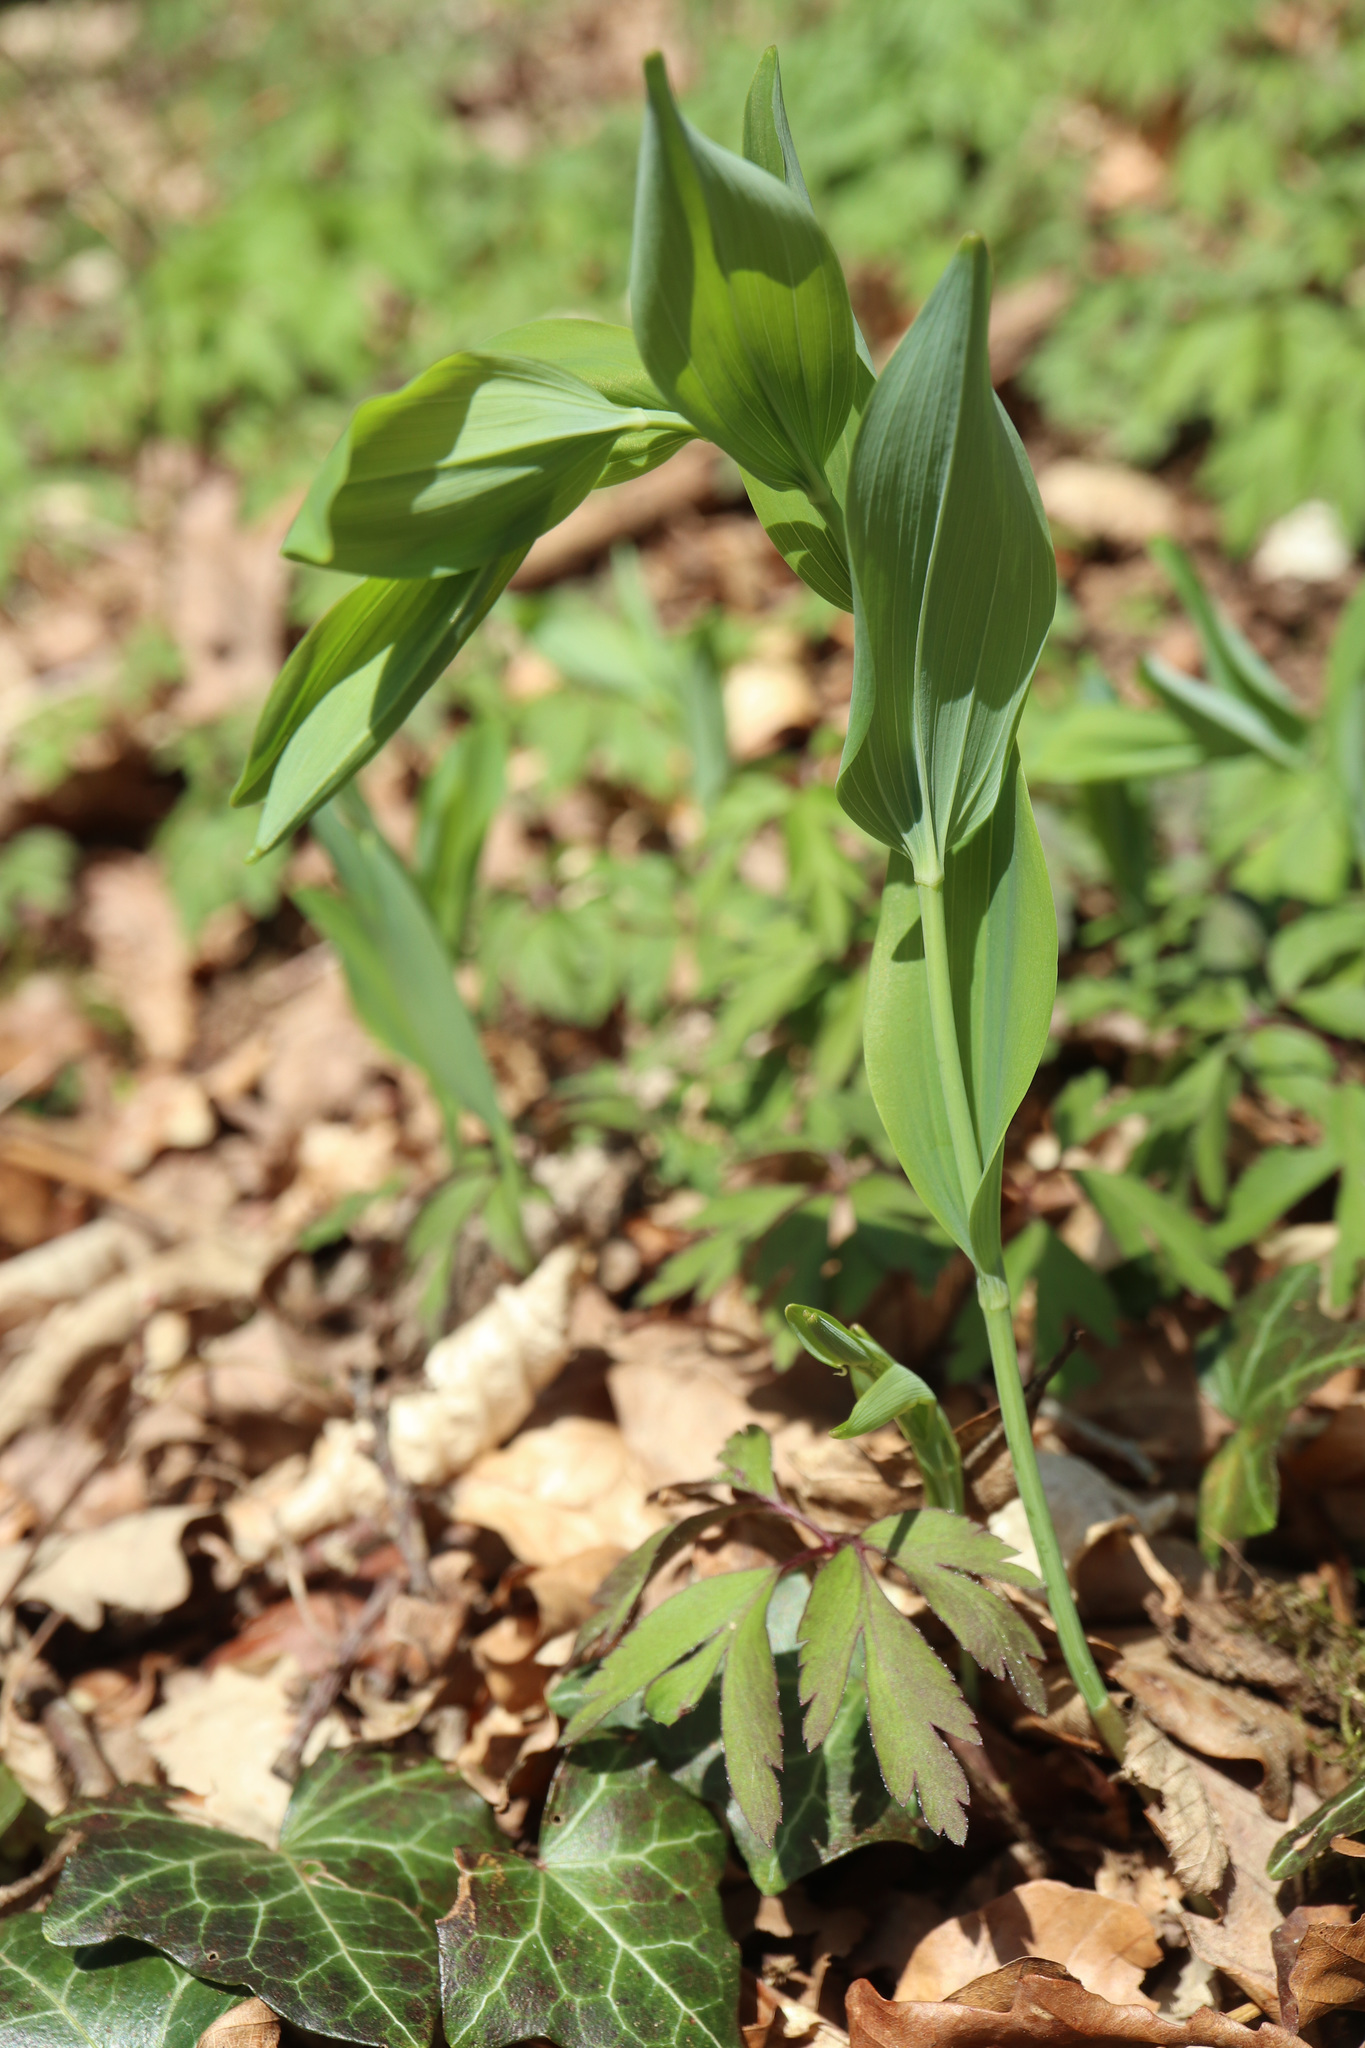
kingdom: Plantae
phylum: Tracheophyta
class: Liliopsida
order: Asparagales
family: Asparagaceae
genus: Polygonatum
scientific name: Polygonatum multiflorum
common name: Solomon's-seal
